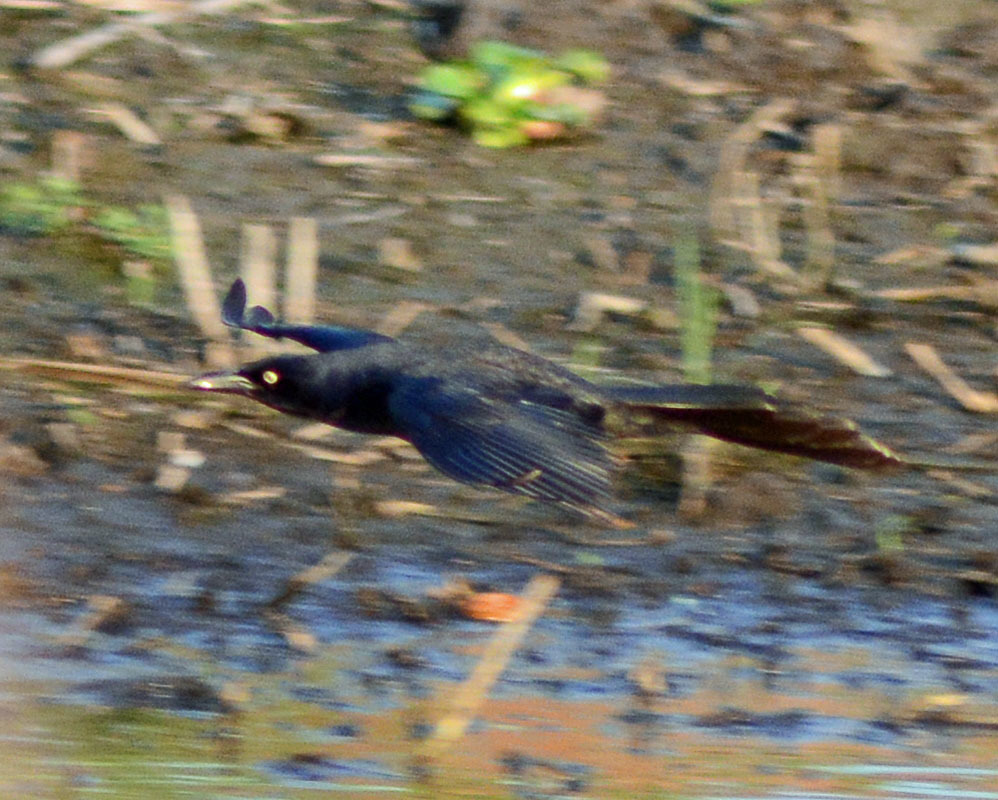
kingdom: Animalia
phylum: Chordata
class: Aves
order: Passeriformes
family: Icteridae
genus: Quiscalus
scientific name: Quiscalus mexicanus
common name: Great-tailed grackle
